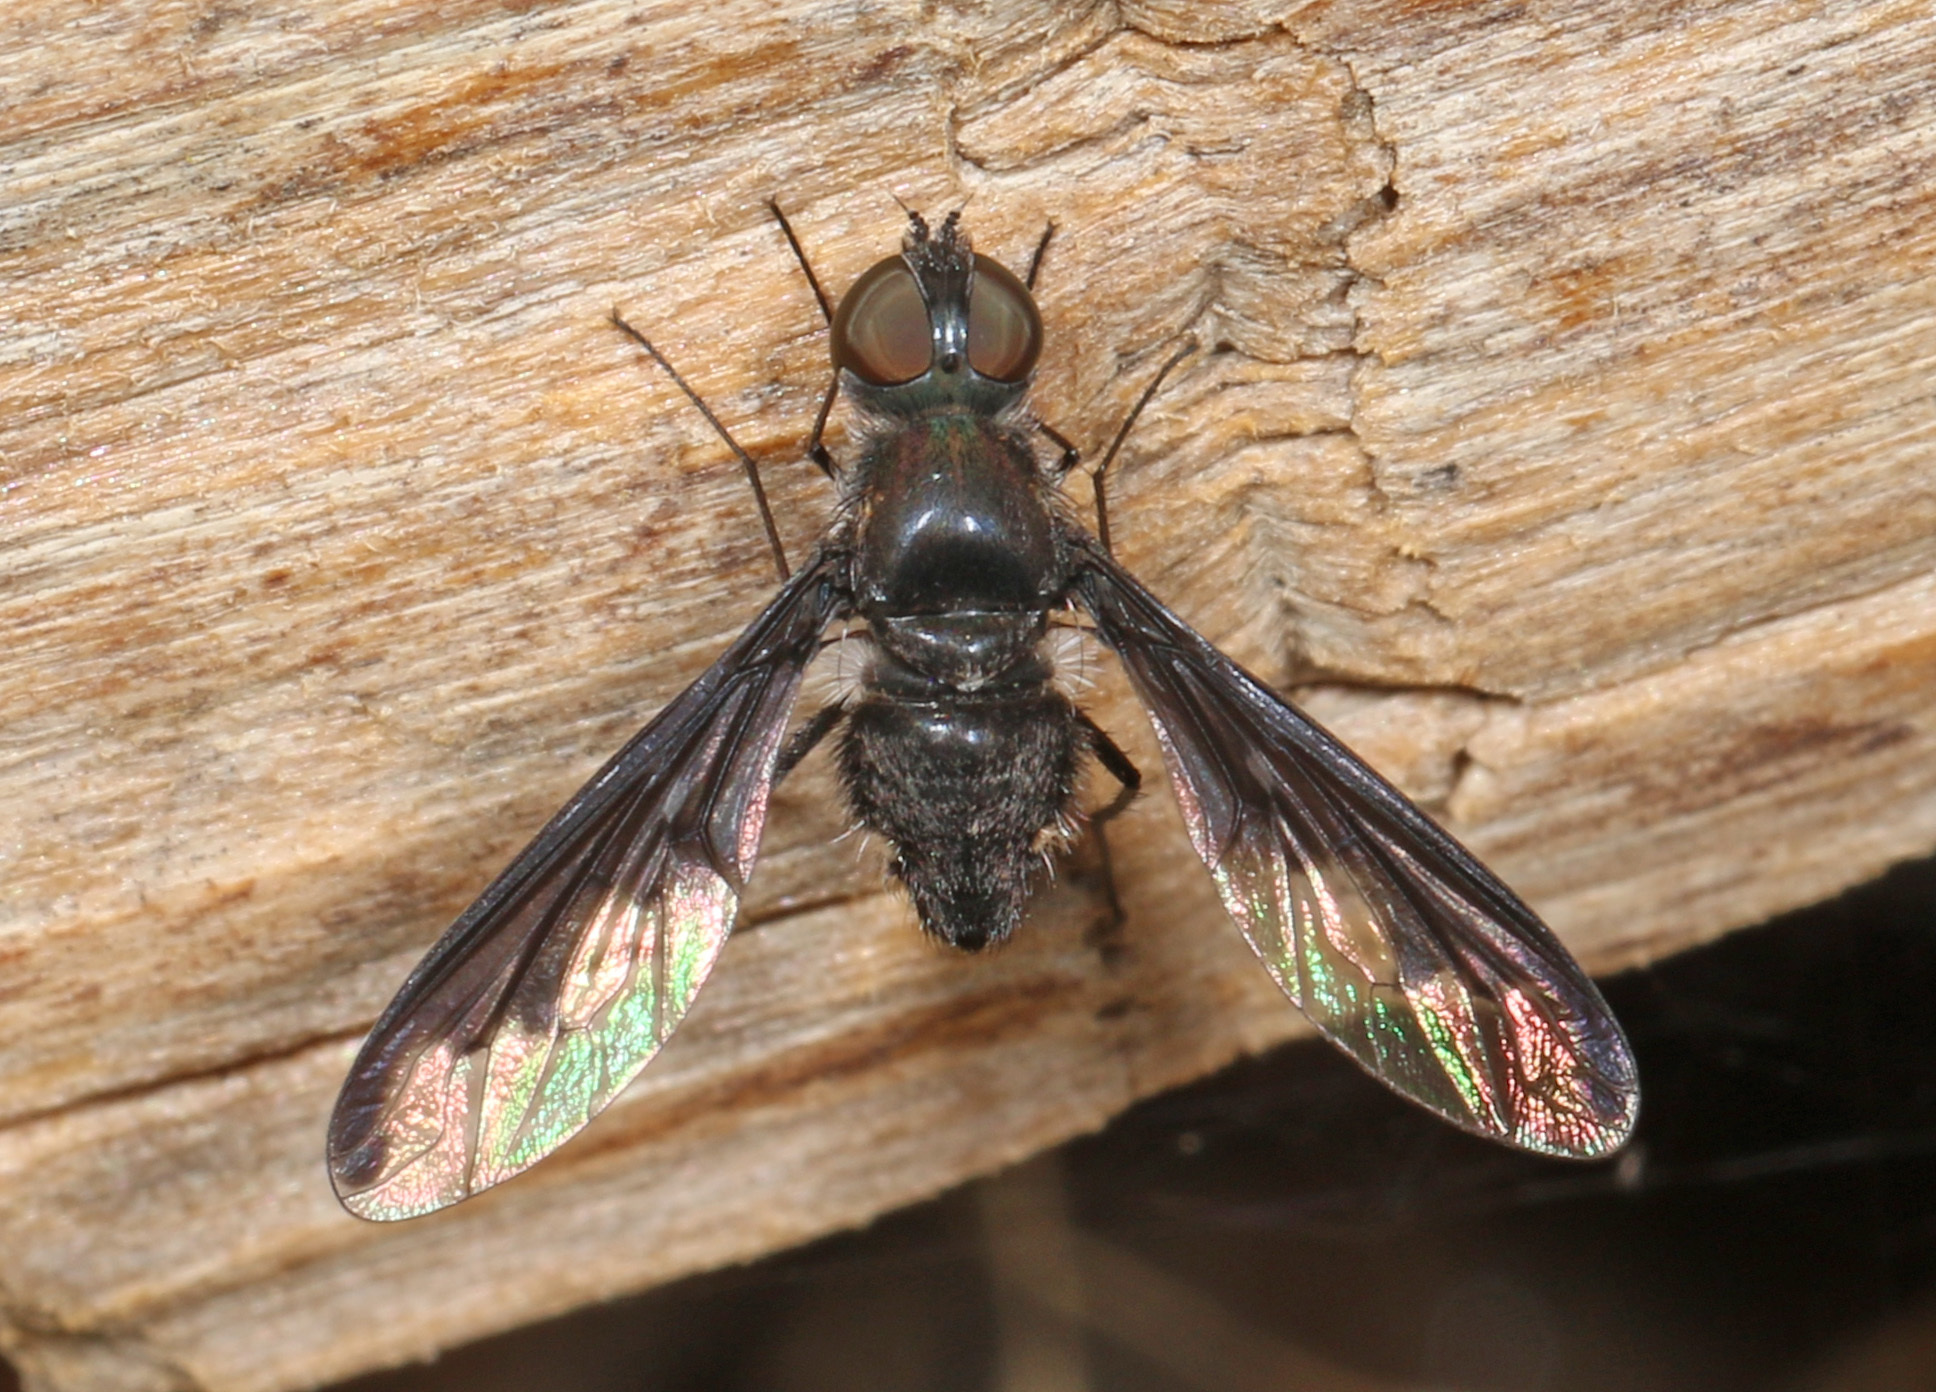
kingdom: Animalia
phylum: Arthropoda
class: Insecta
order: Diptera
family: Bombyliidae
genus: Anthrax
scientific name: Anthrax argyropygus
